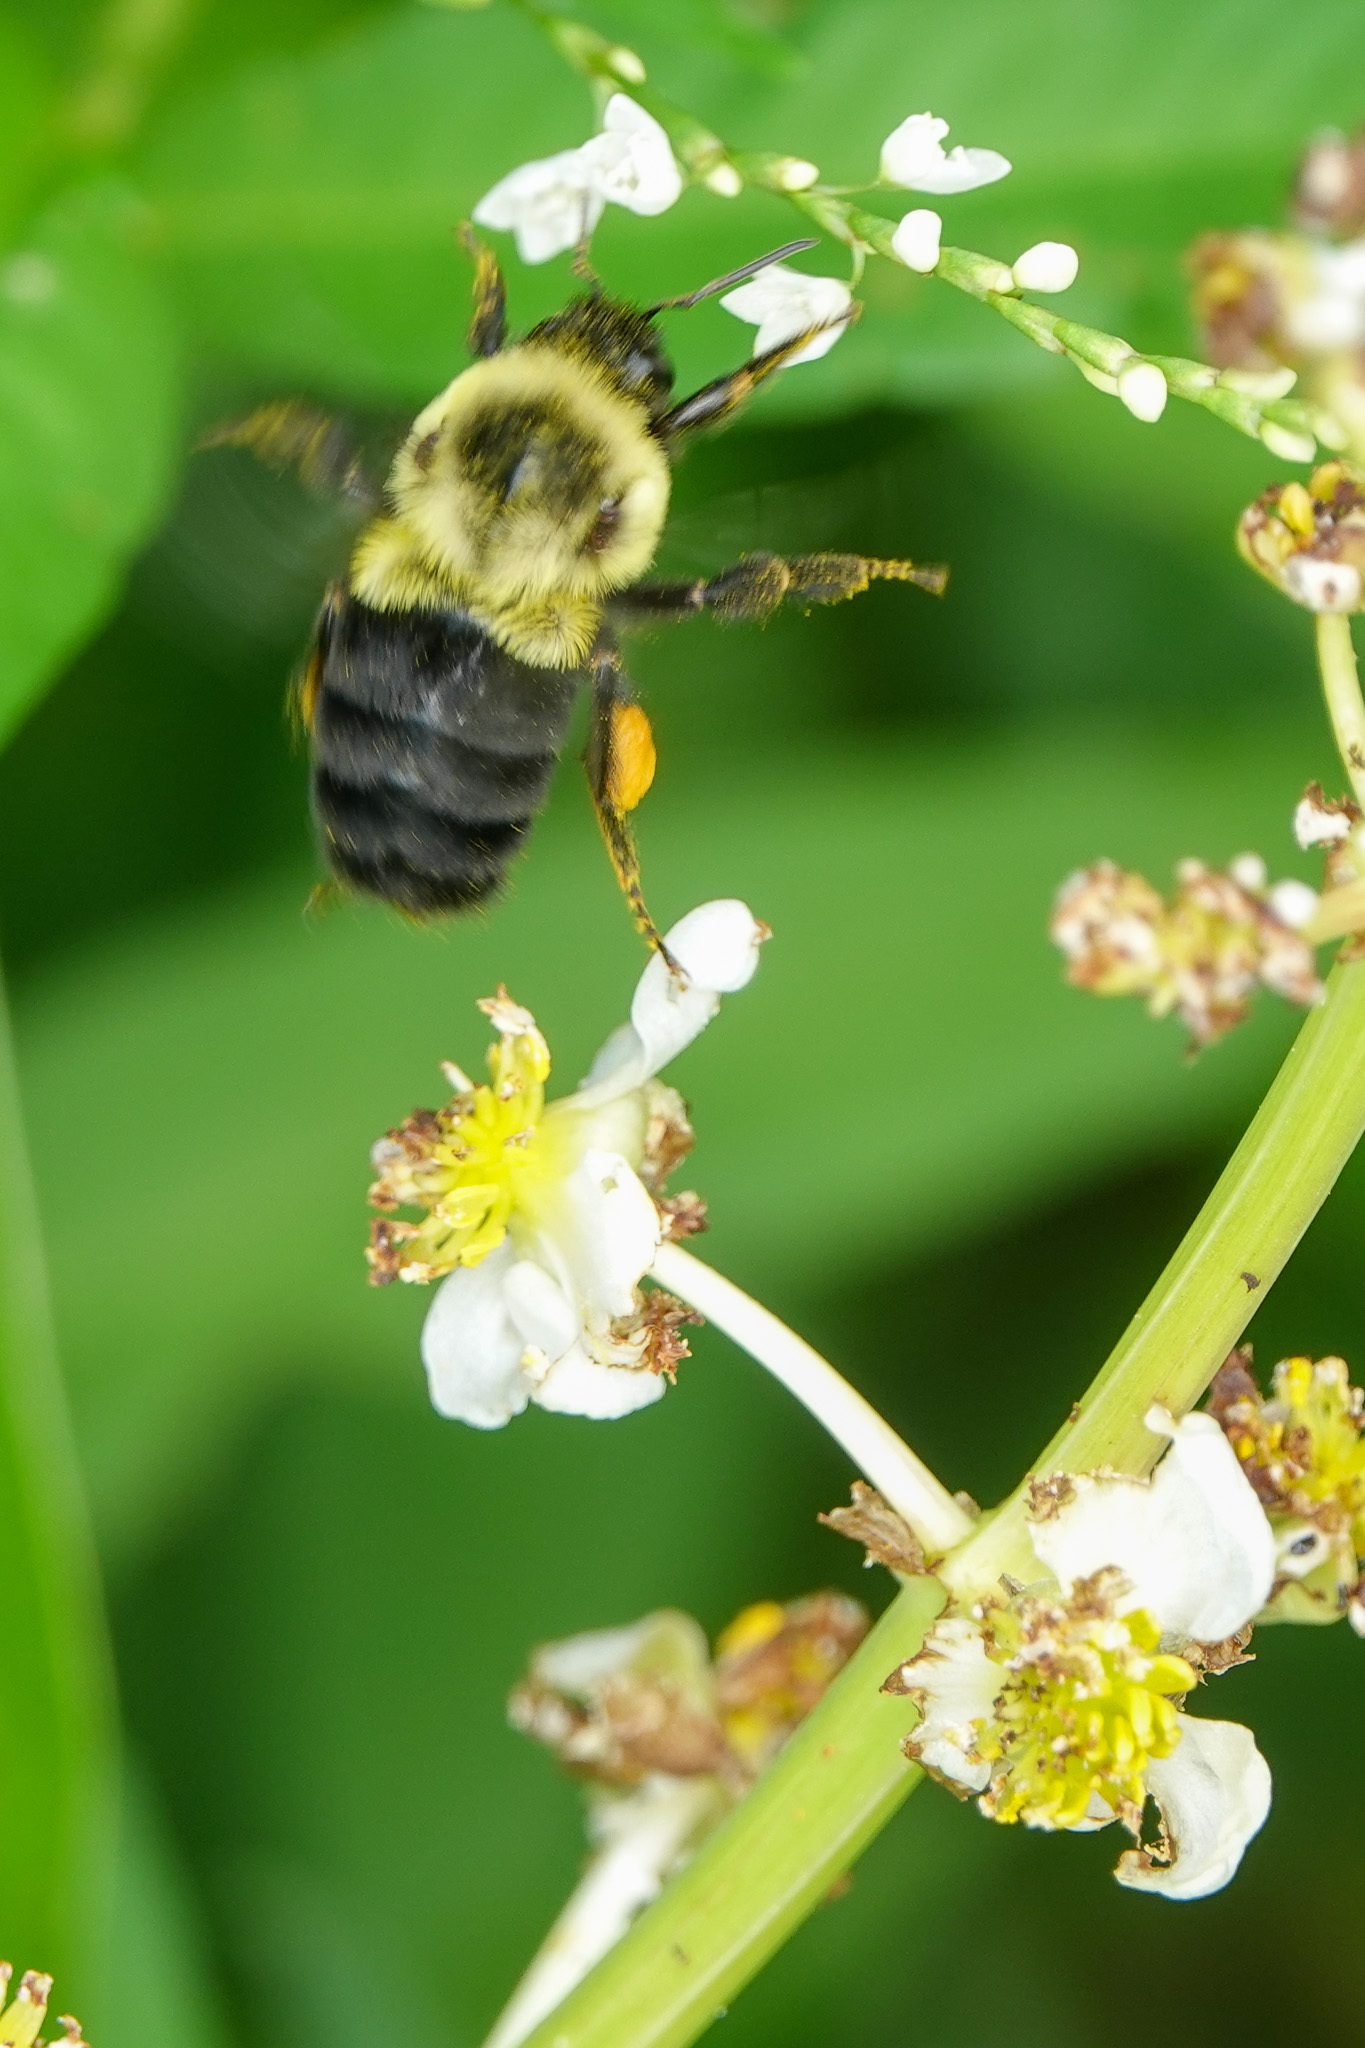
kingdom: Animalia
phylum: Arthropoda
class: Insecta
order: Hymenoptera
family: Apidae
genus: Bombus
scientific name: Bombus impatiens
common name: Common eastern bumble bee
